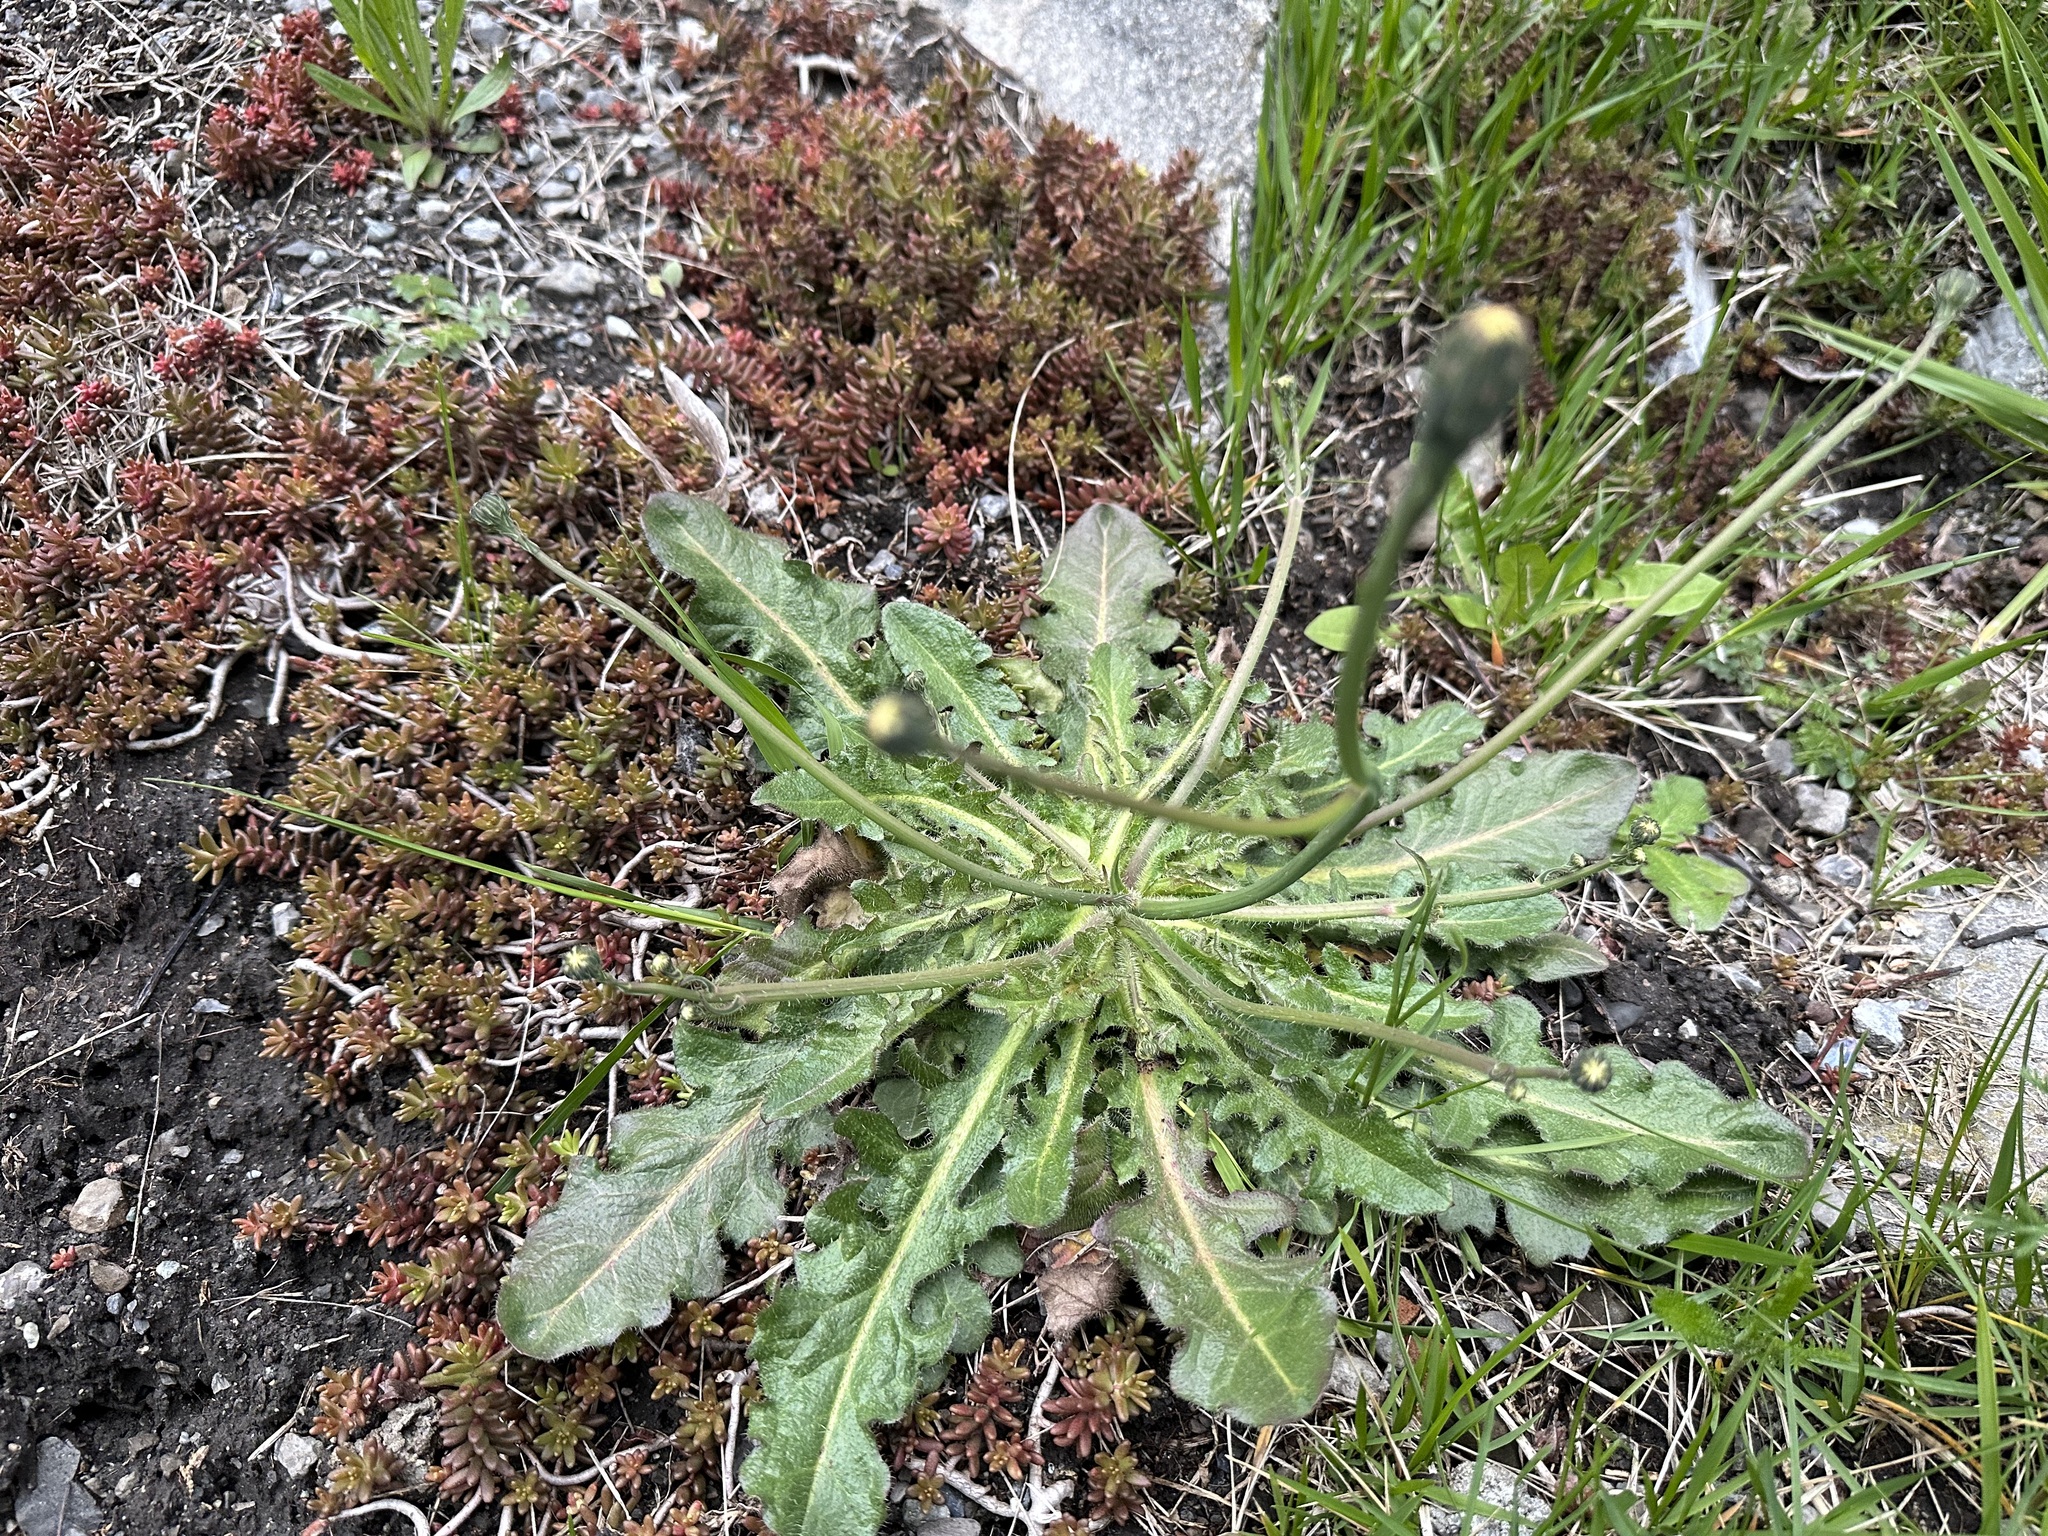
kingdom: Plantae
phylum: Tracheophyta
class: Magnoliopsida
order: Asterales
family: Asteraceae
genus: Hypochaeris
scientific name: Hypochaeris radicata
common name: Flatweed
